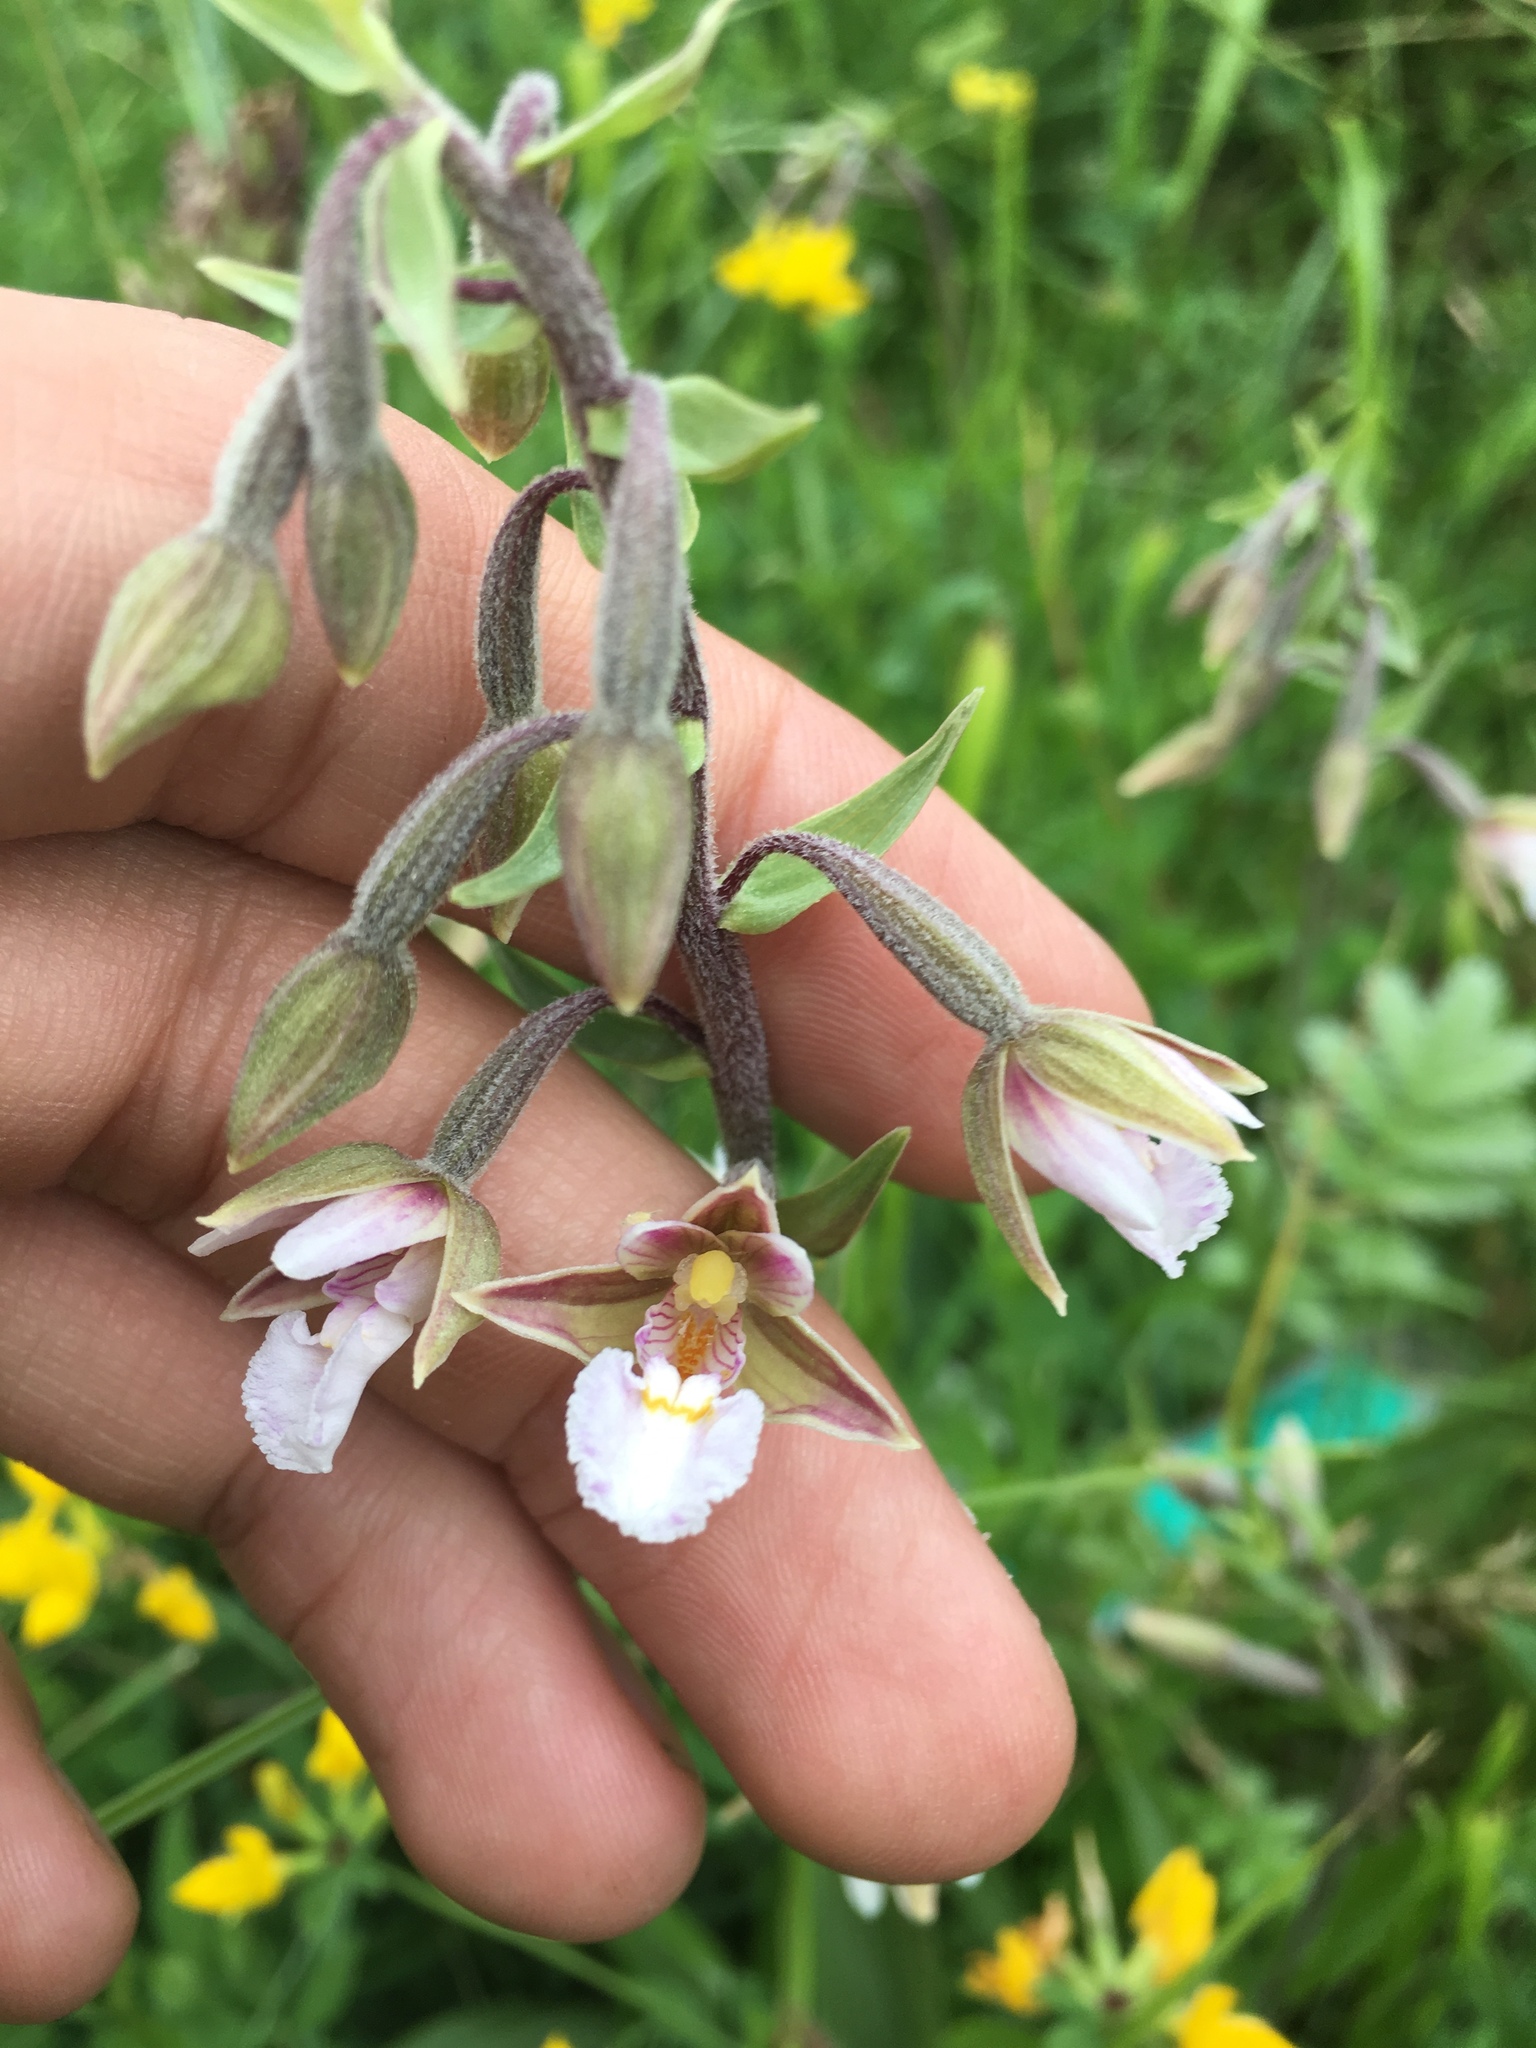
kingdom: Plantae
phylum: Tracheophyta
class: Liliopsida
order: Asparagales
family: Orchidaceae
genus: Epipactis
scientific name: Epipactis palustris
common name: Marsh helleborine
